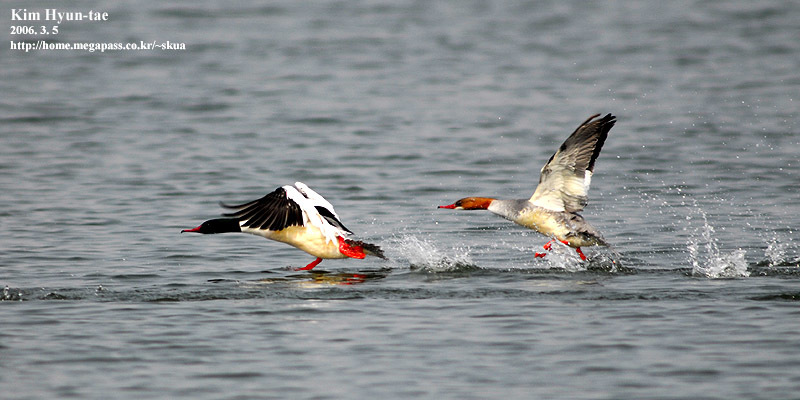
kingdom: Animalia
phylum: Chordata
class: Aves
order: Anseriformes
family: Anatidae
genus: Mergus
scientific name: Mergus merganser
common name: Common merganser
